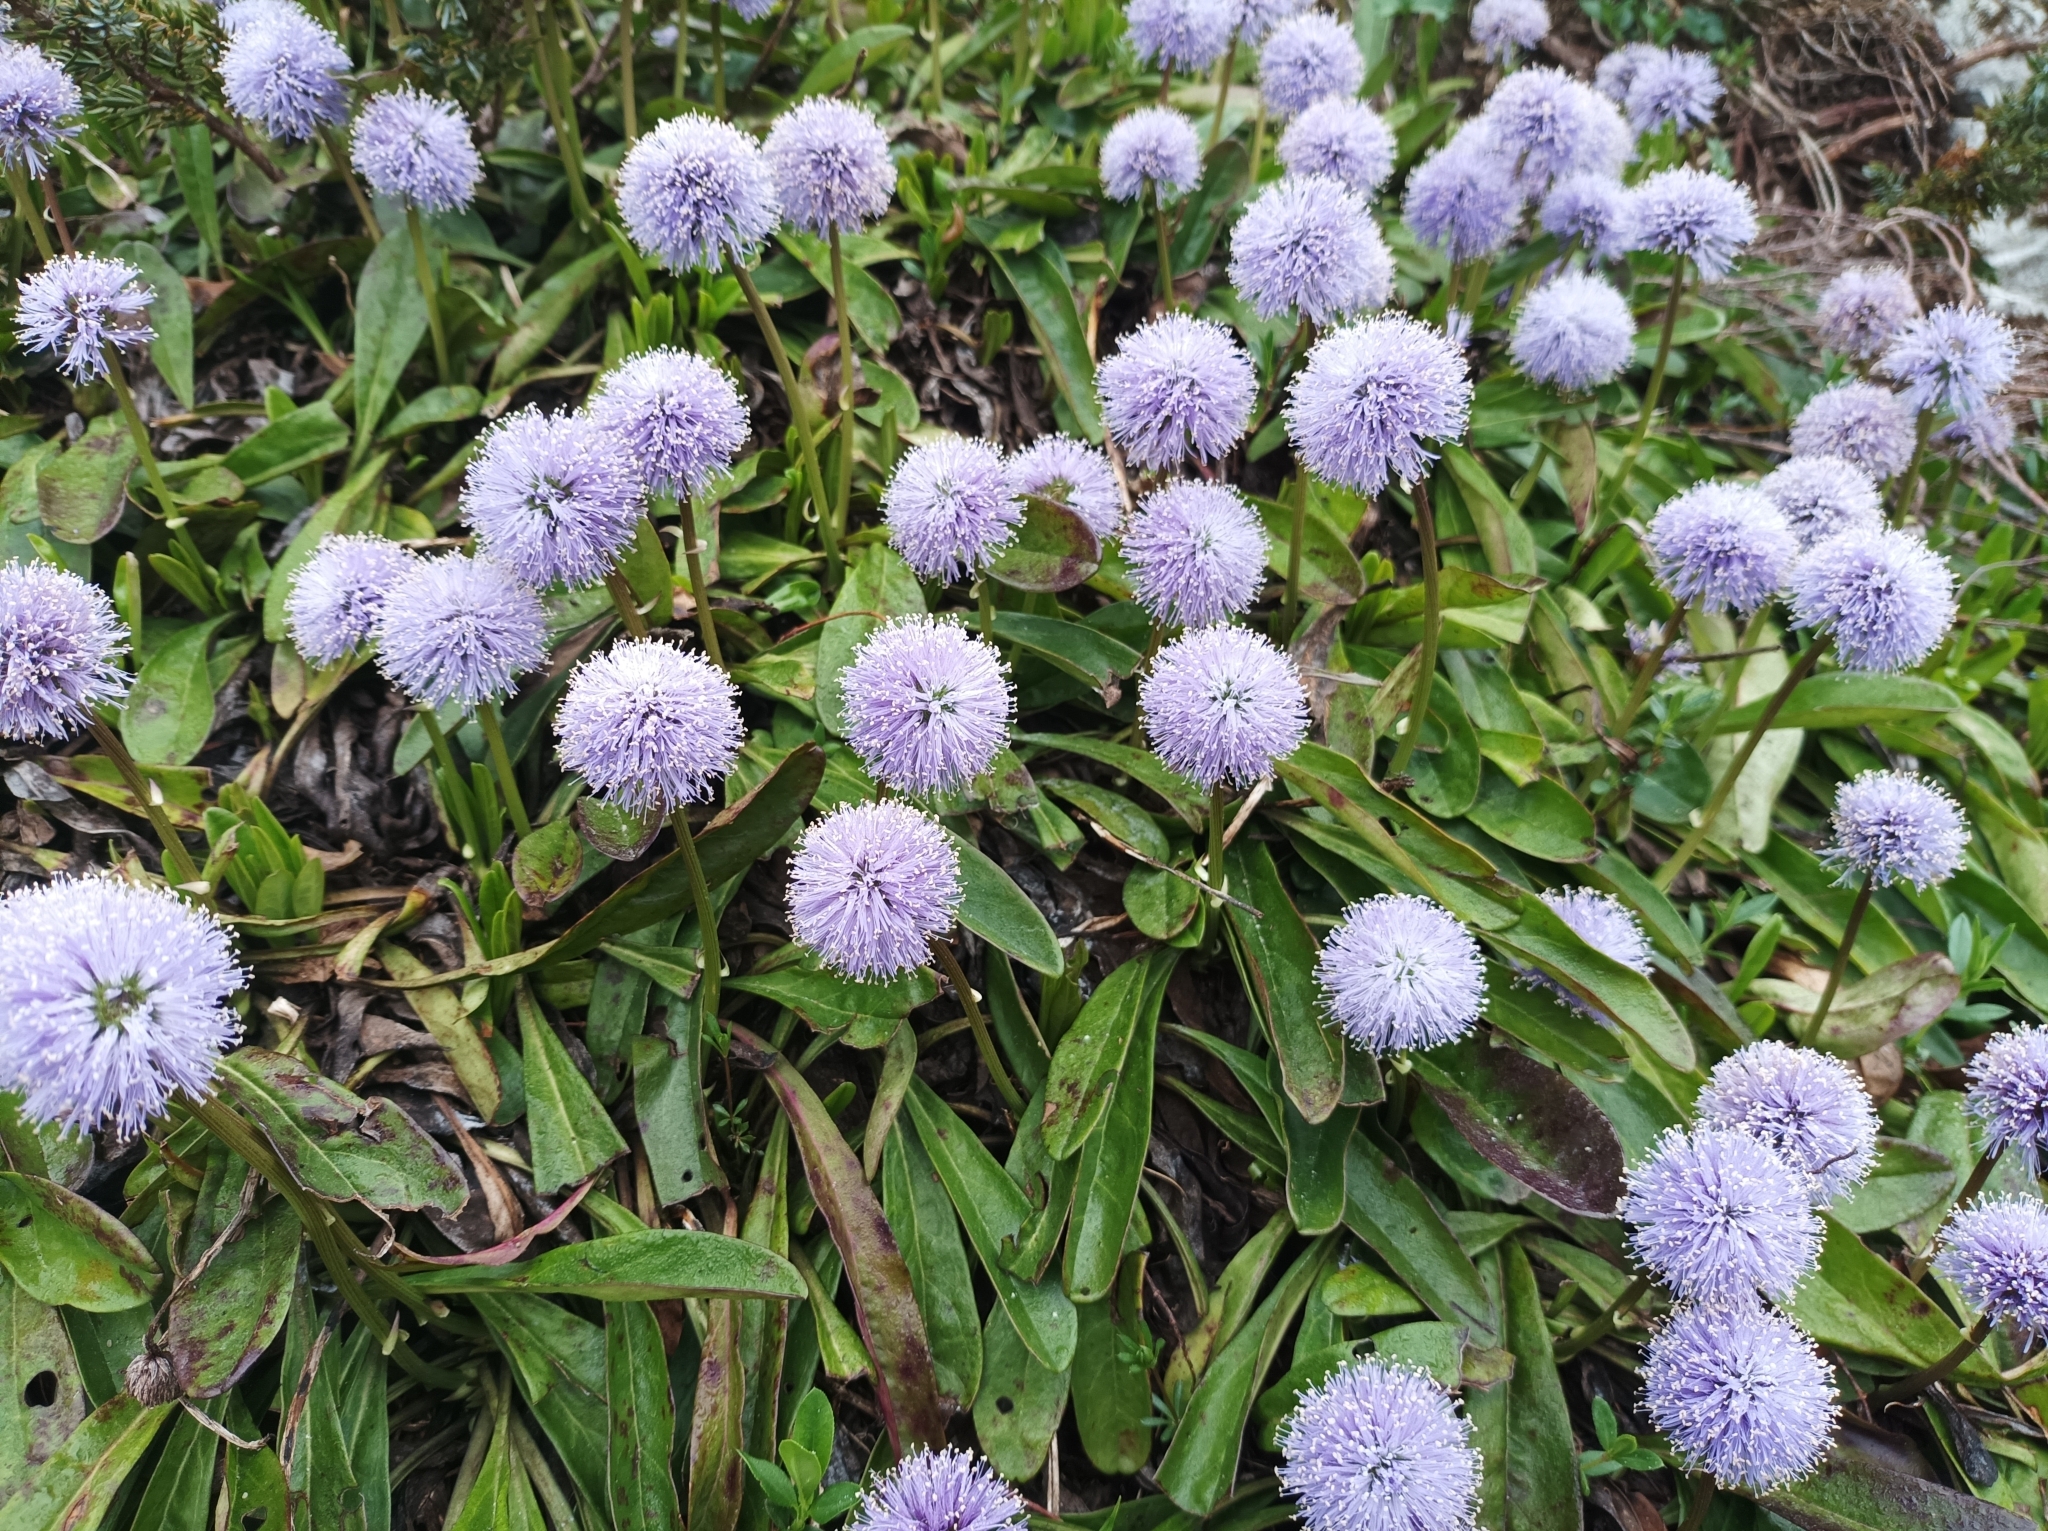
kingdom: Plantae
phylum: Tracheophyta
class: Magnoliopsida
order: Lamiales
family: Plantaginaceae
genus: Globularia
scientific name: Globularia nudicaulis
